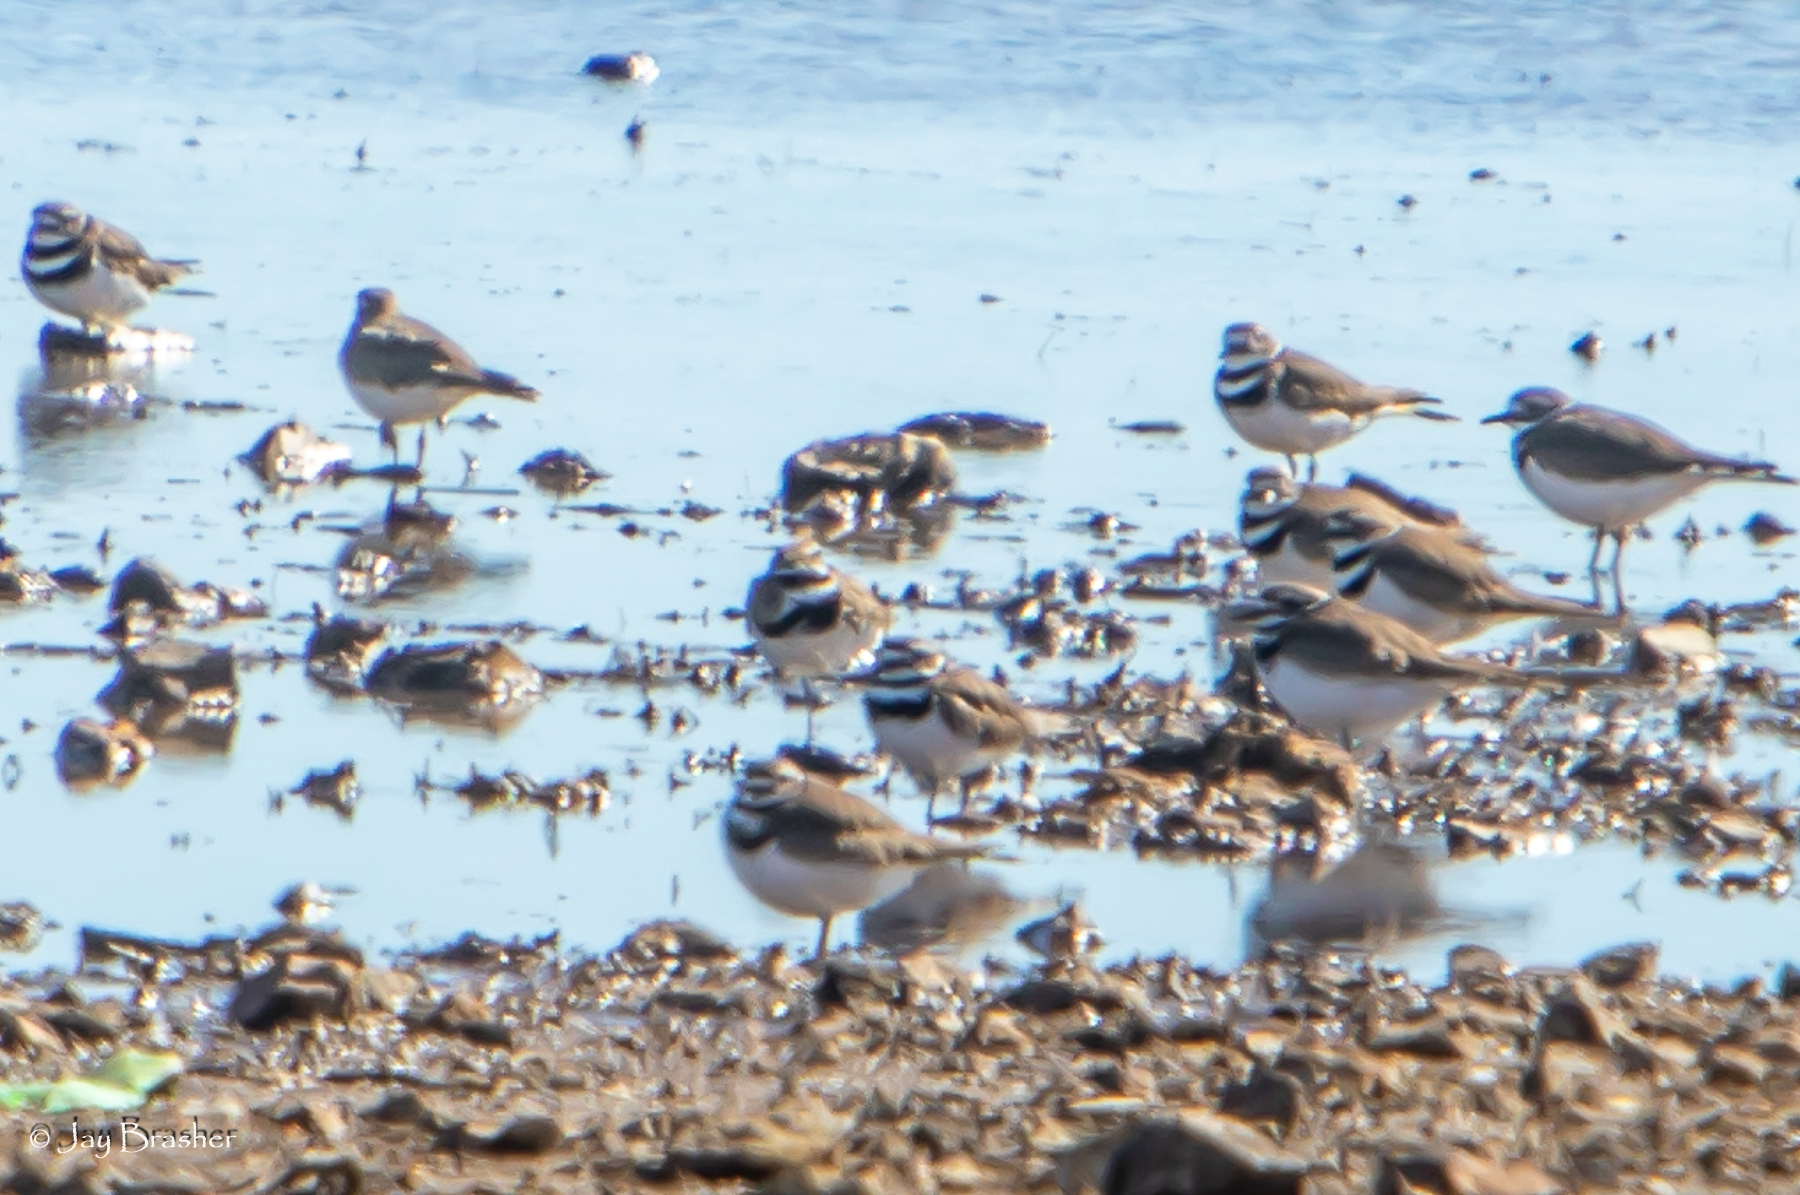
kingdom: Animalia
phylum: Chordata
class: Aves
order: Charadriiformes
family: Charadriidae
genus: Charadrius
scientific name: Charadrius vociferus
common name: Killdeer
